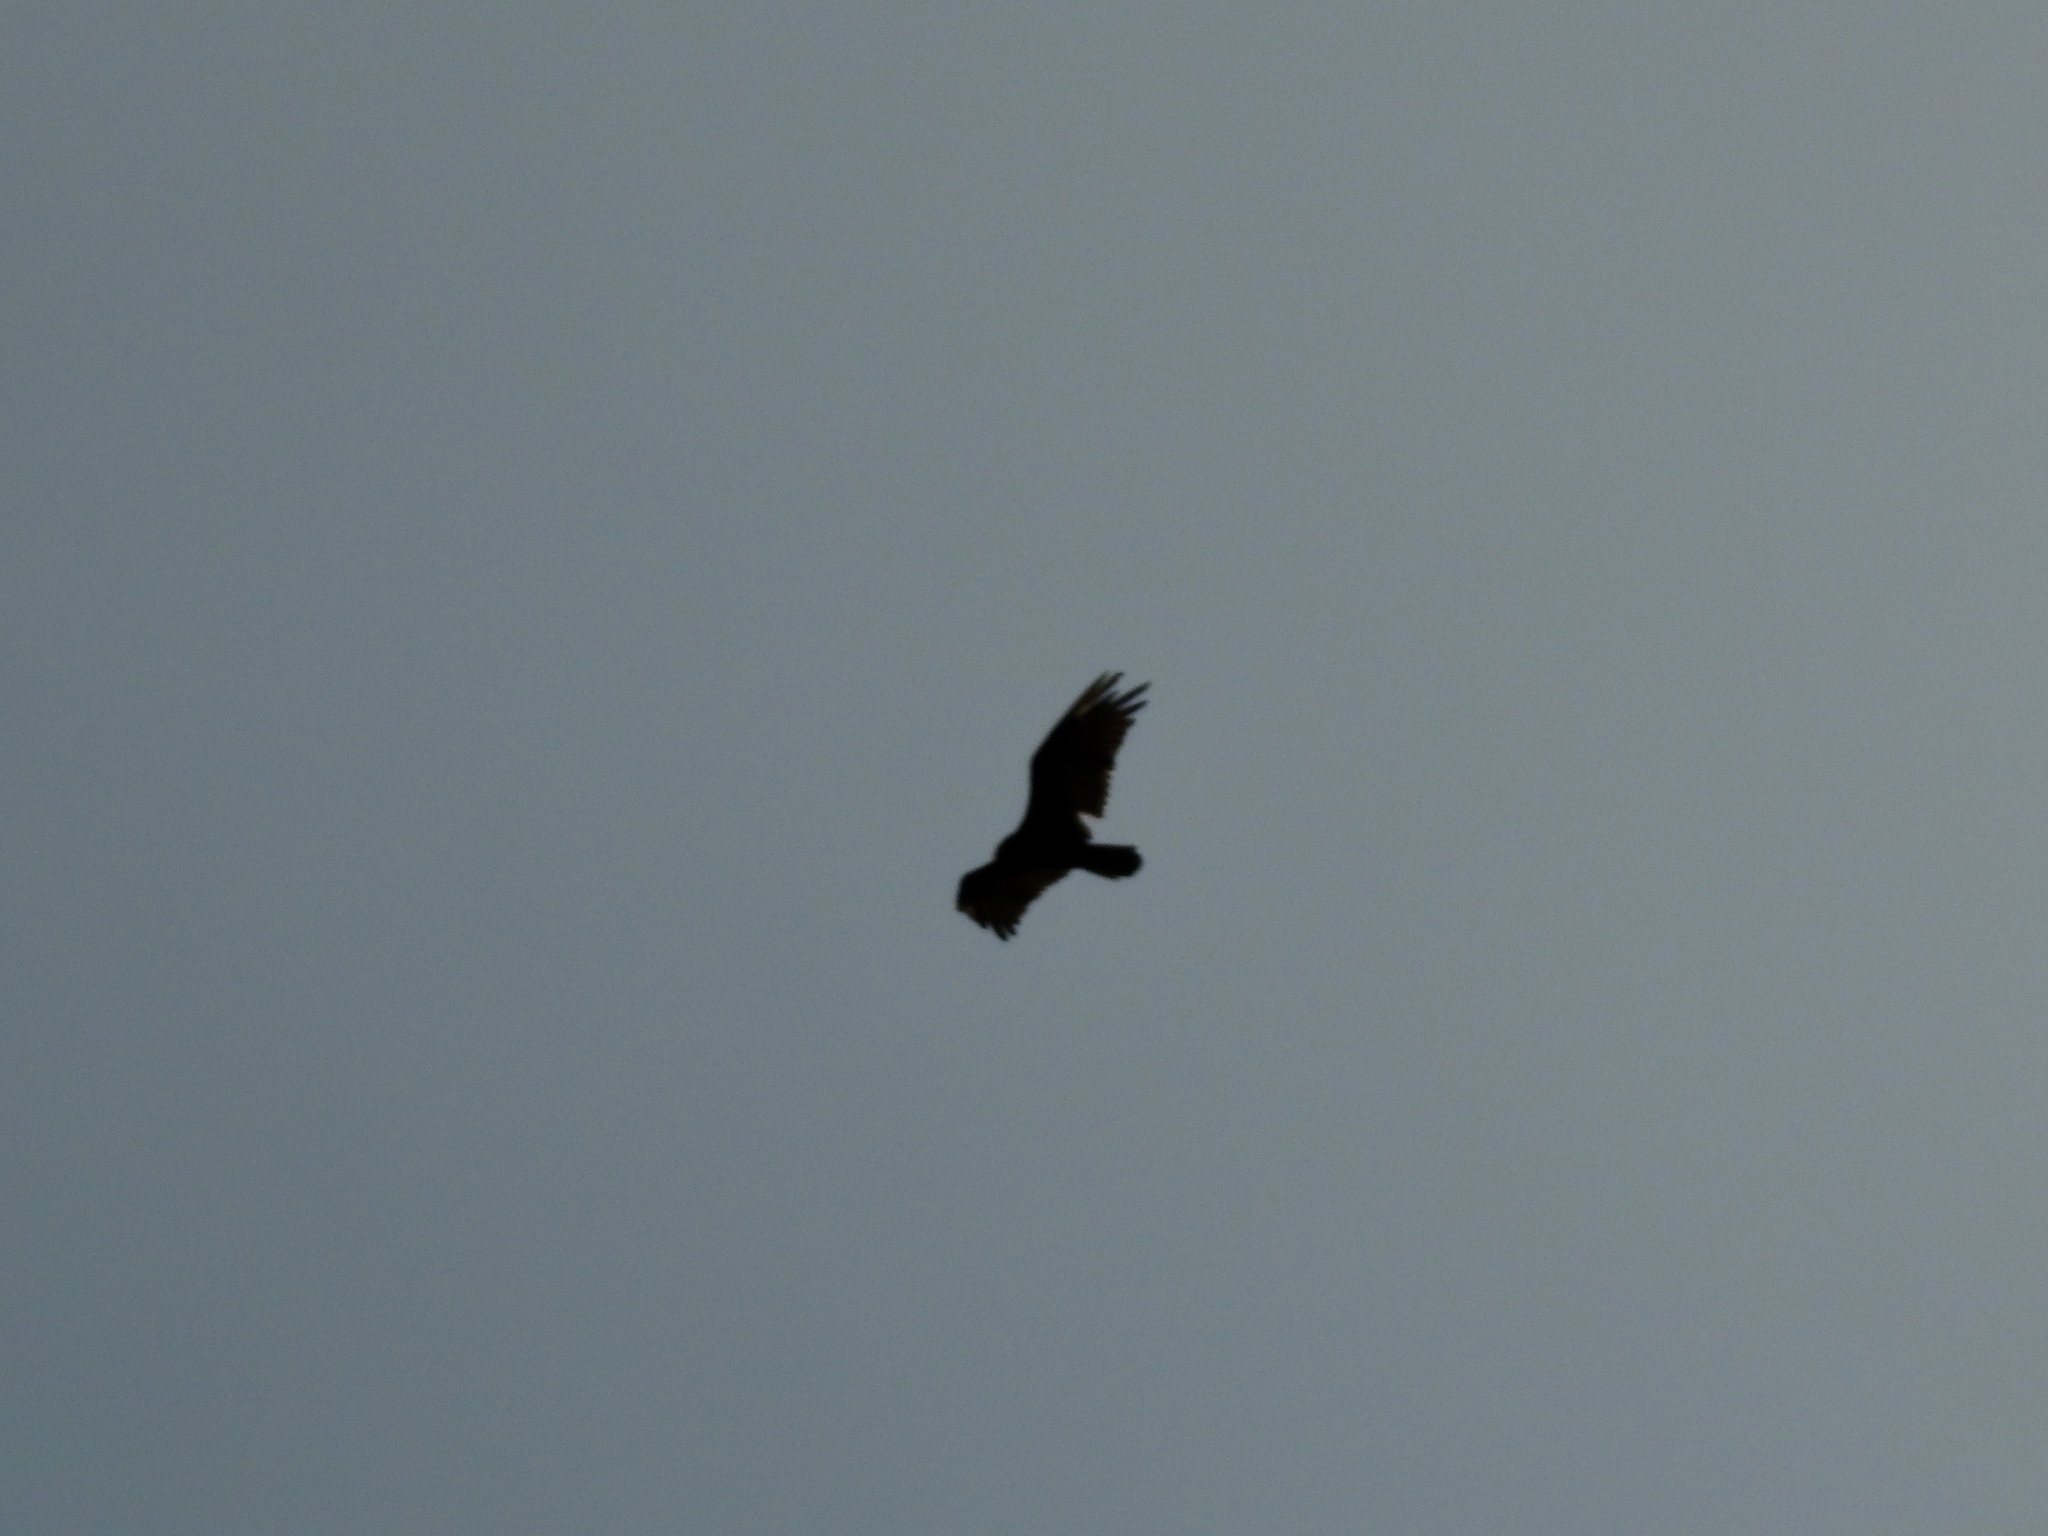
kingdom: Animalia
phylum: Chordata
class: Aves
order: Accipitriformes
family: Cathartidae
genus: Cathartes
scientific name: Cathartes aura
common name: Turkey vulture
